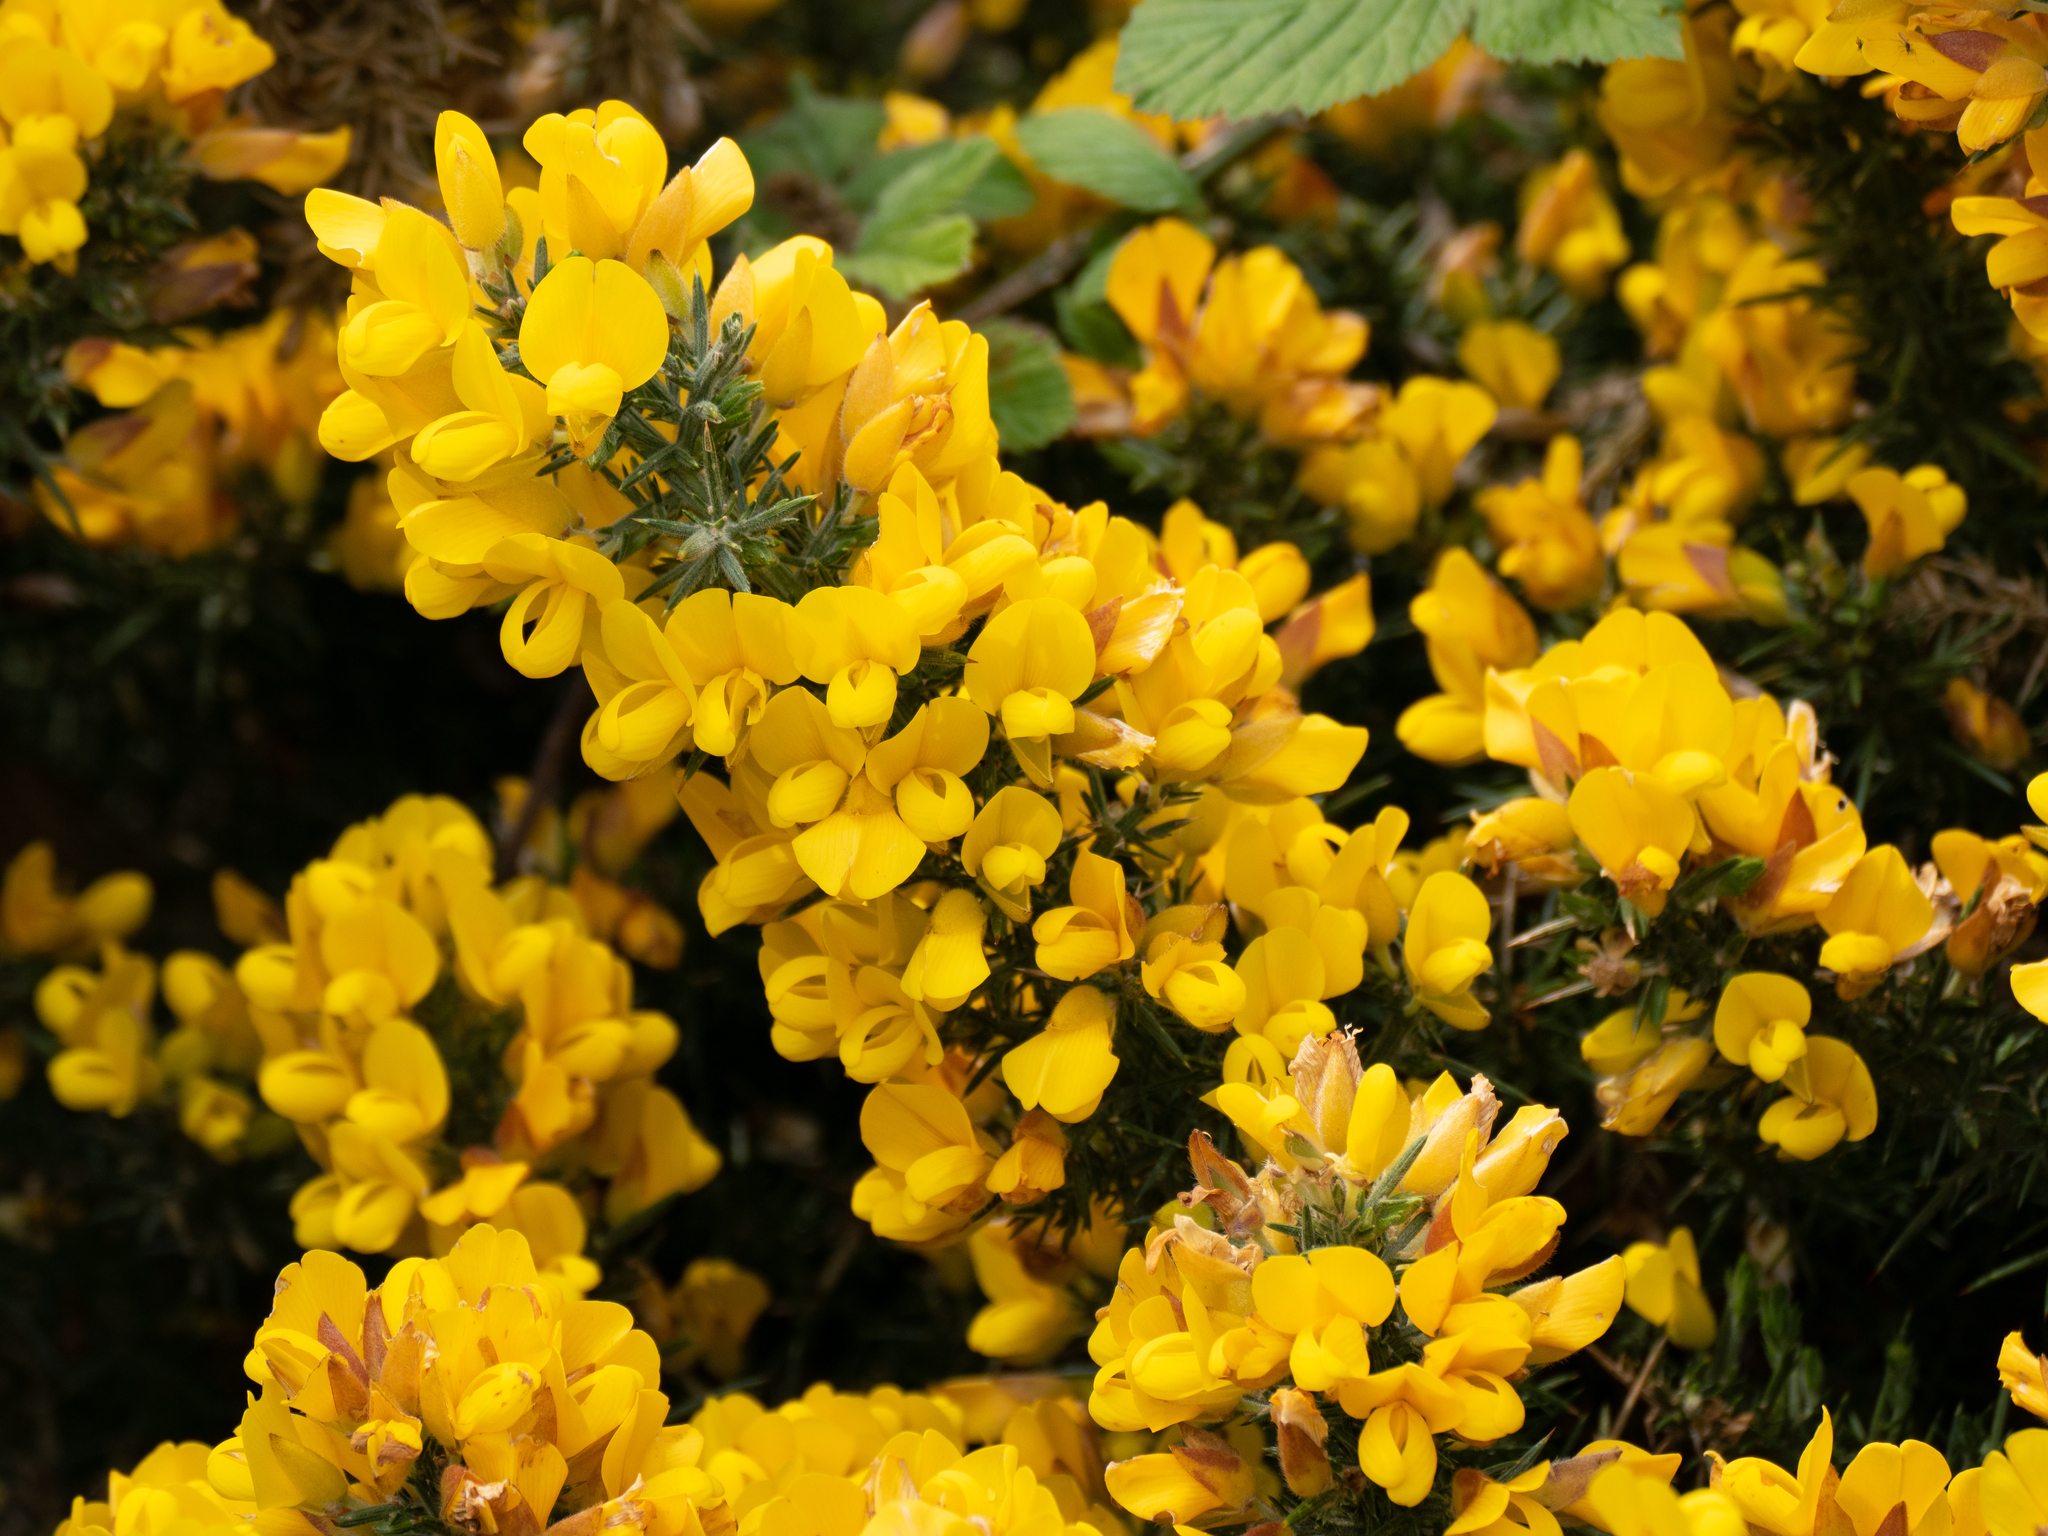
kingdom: Plantae
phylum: Tracheophyta
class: Magnoliopsida
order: Fabales
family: Fabaceae
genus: Ulex
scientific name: Ulex europaeus
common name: Common gorse
